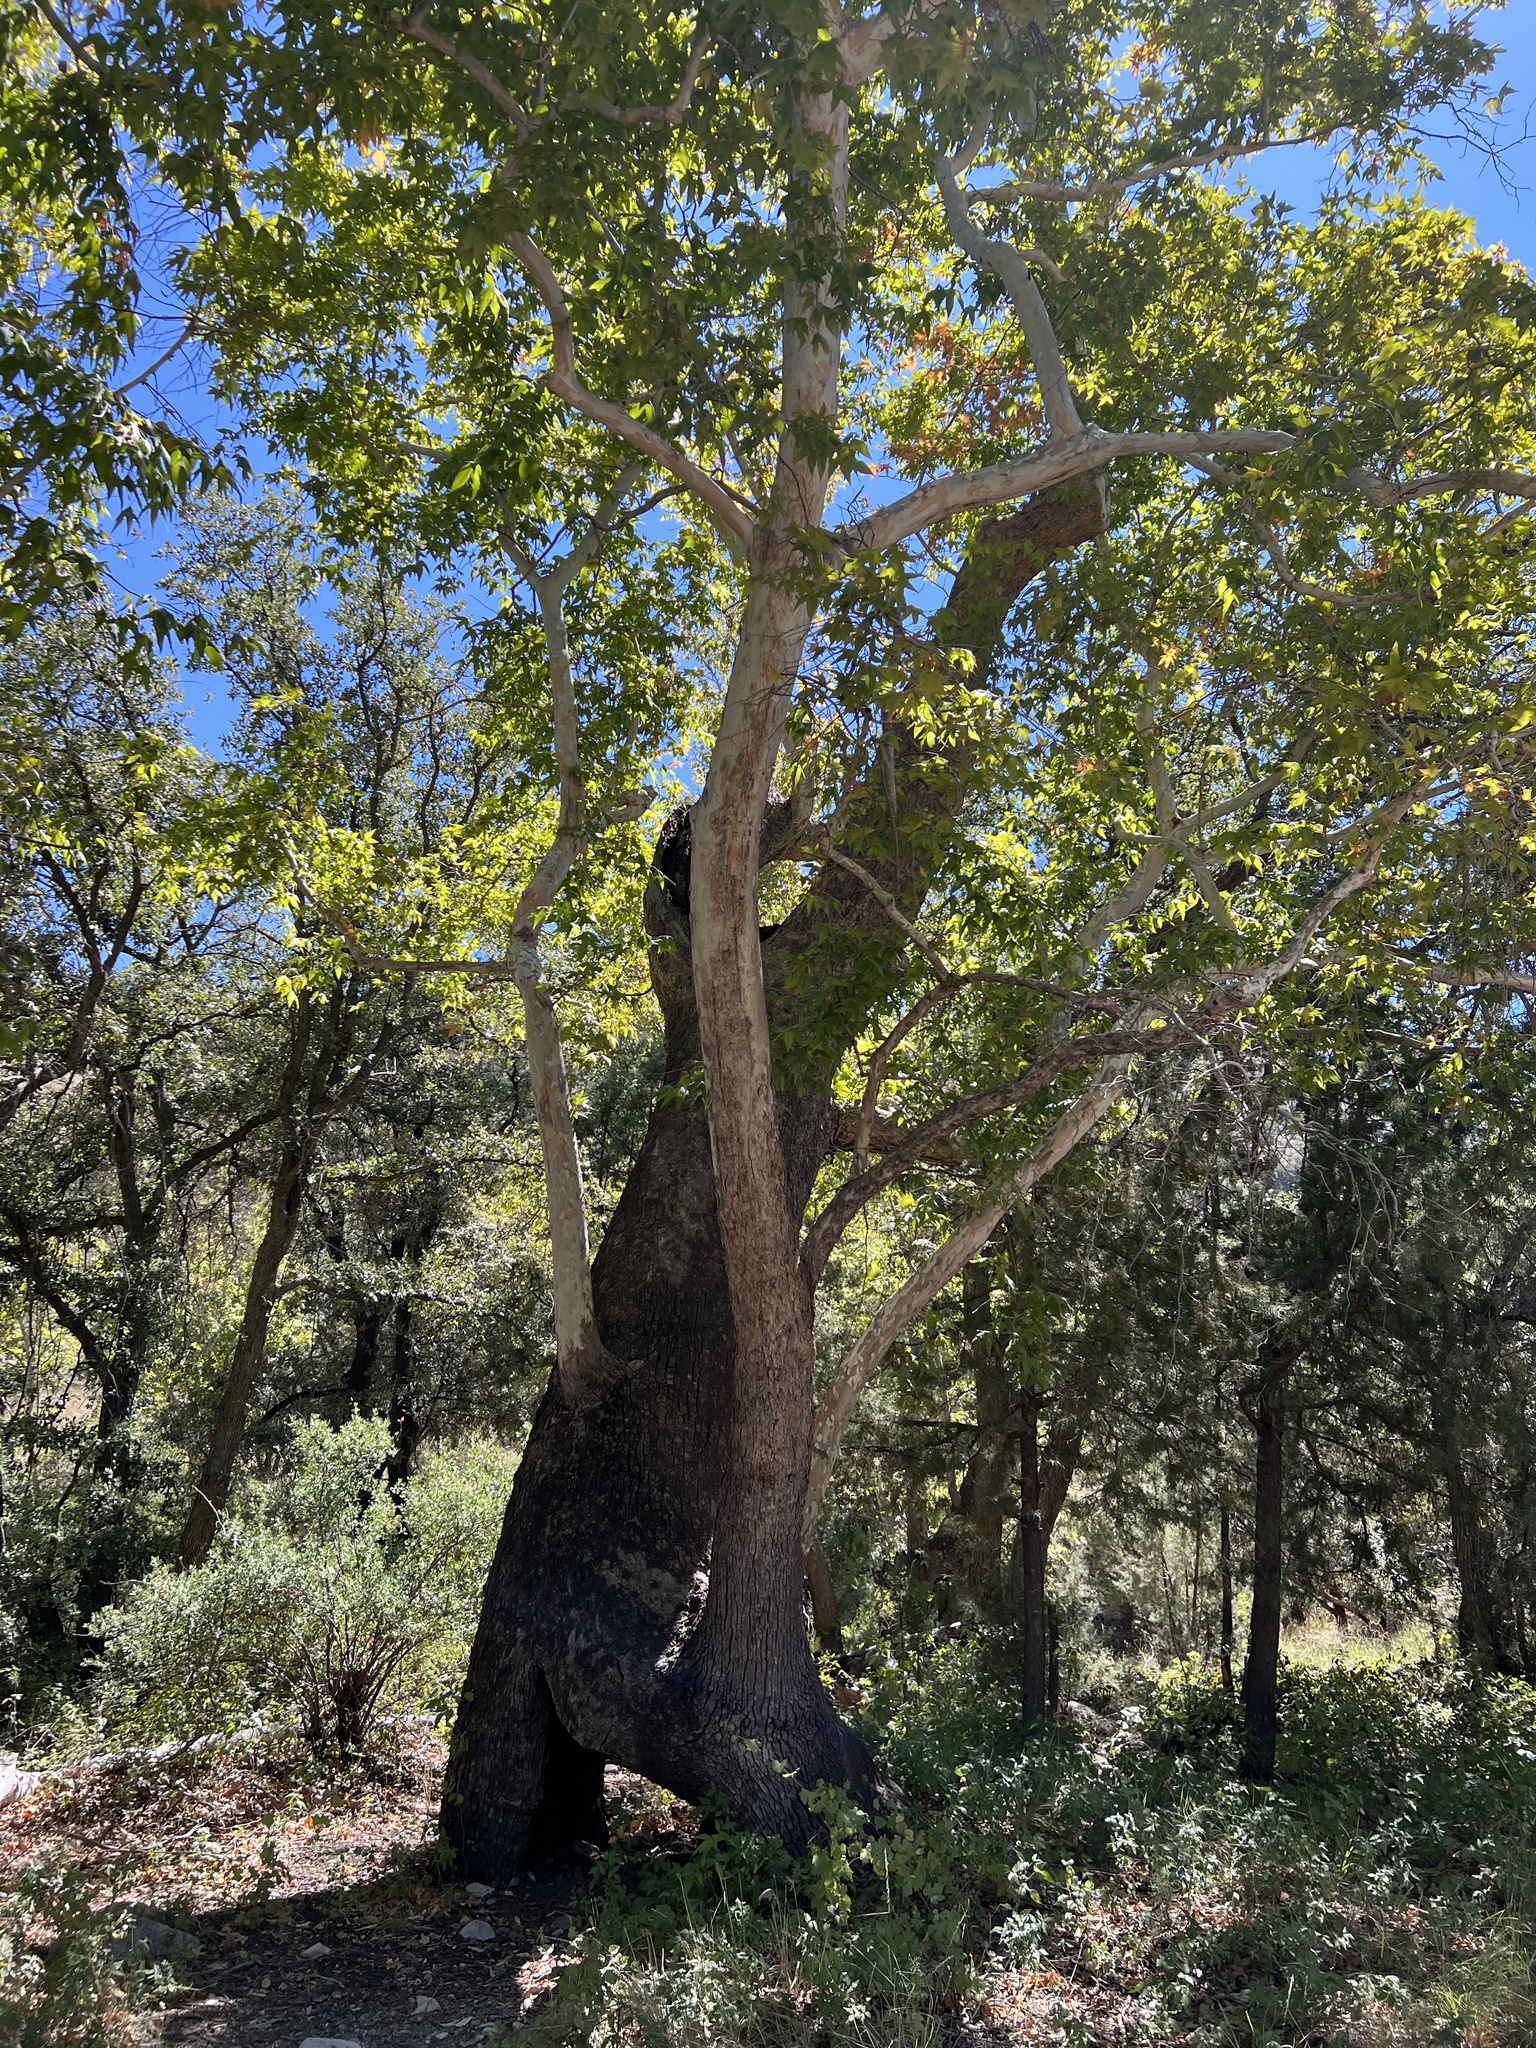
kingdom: Plantae
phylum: Tracheophyta
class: Magnoliopsida
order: Proteales
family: Platanaceae
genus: Platanus
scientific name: Platanus wrightii
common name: Arizona sycamore
